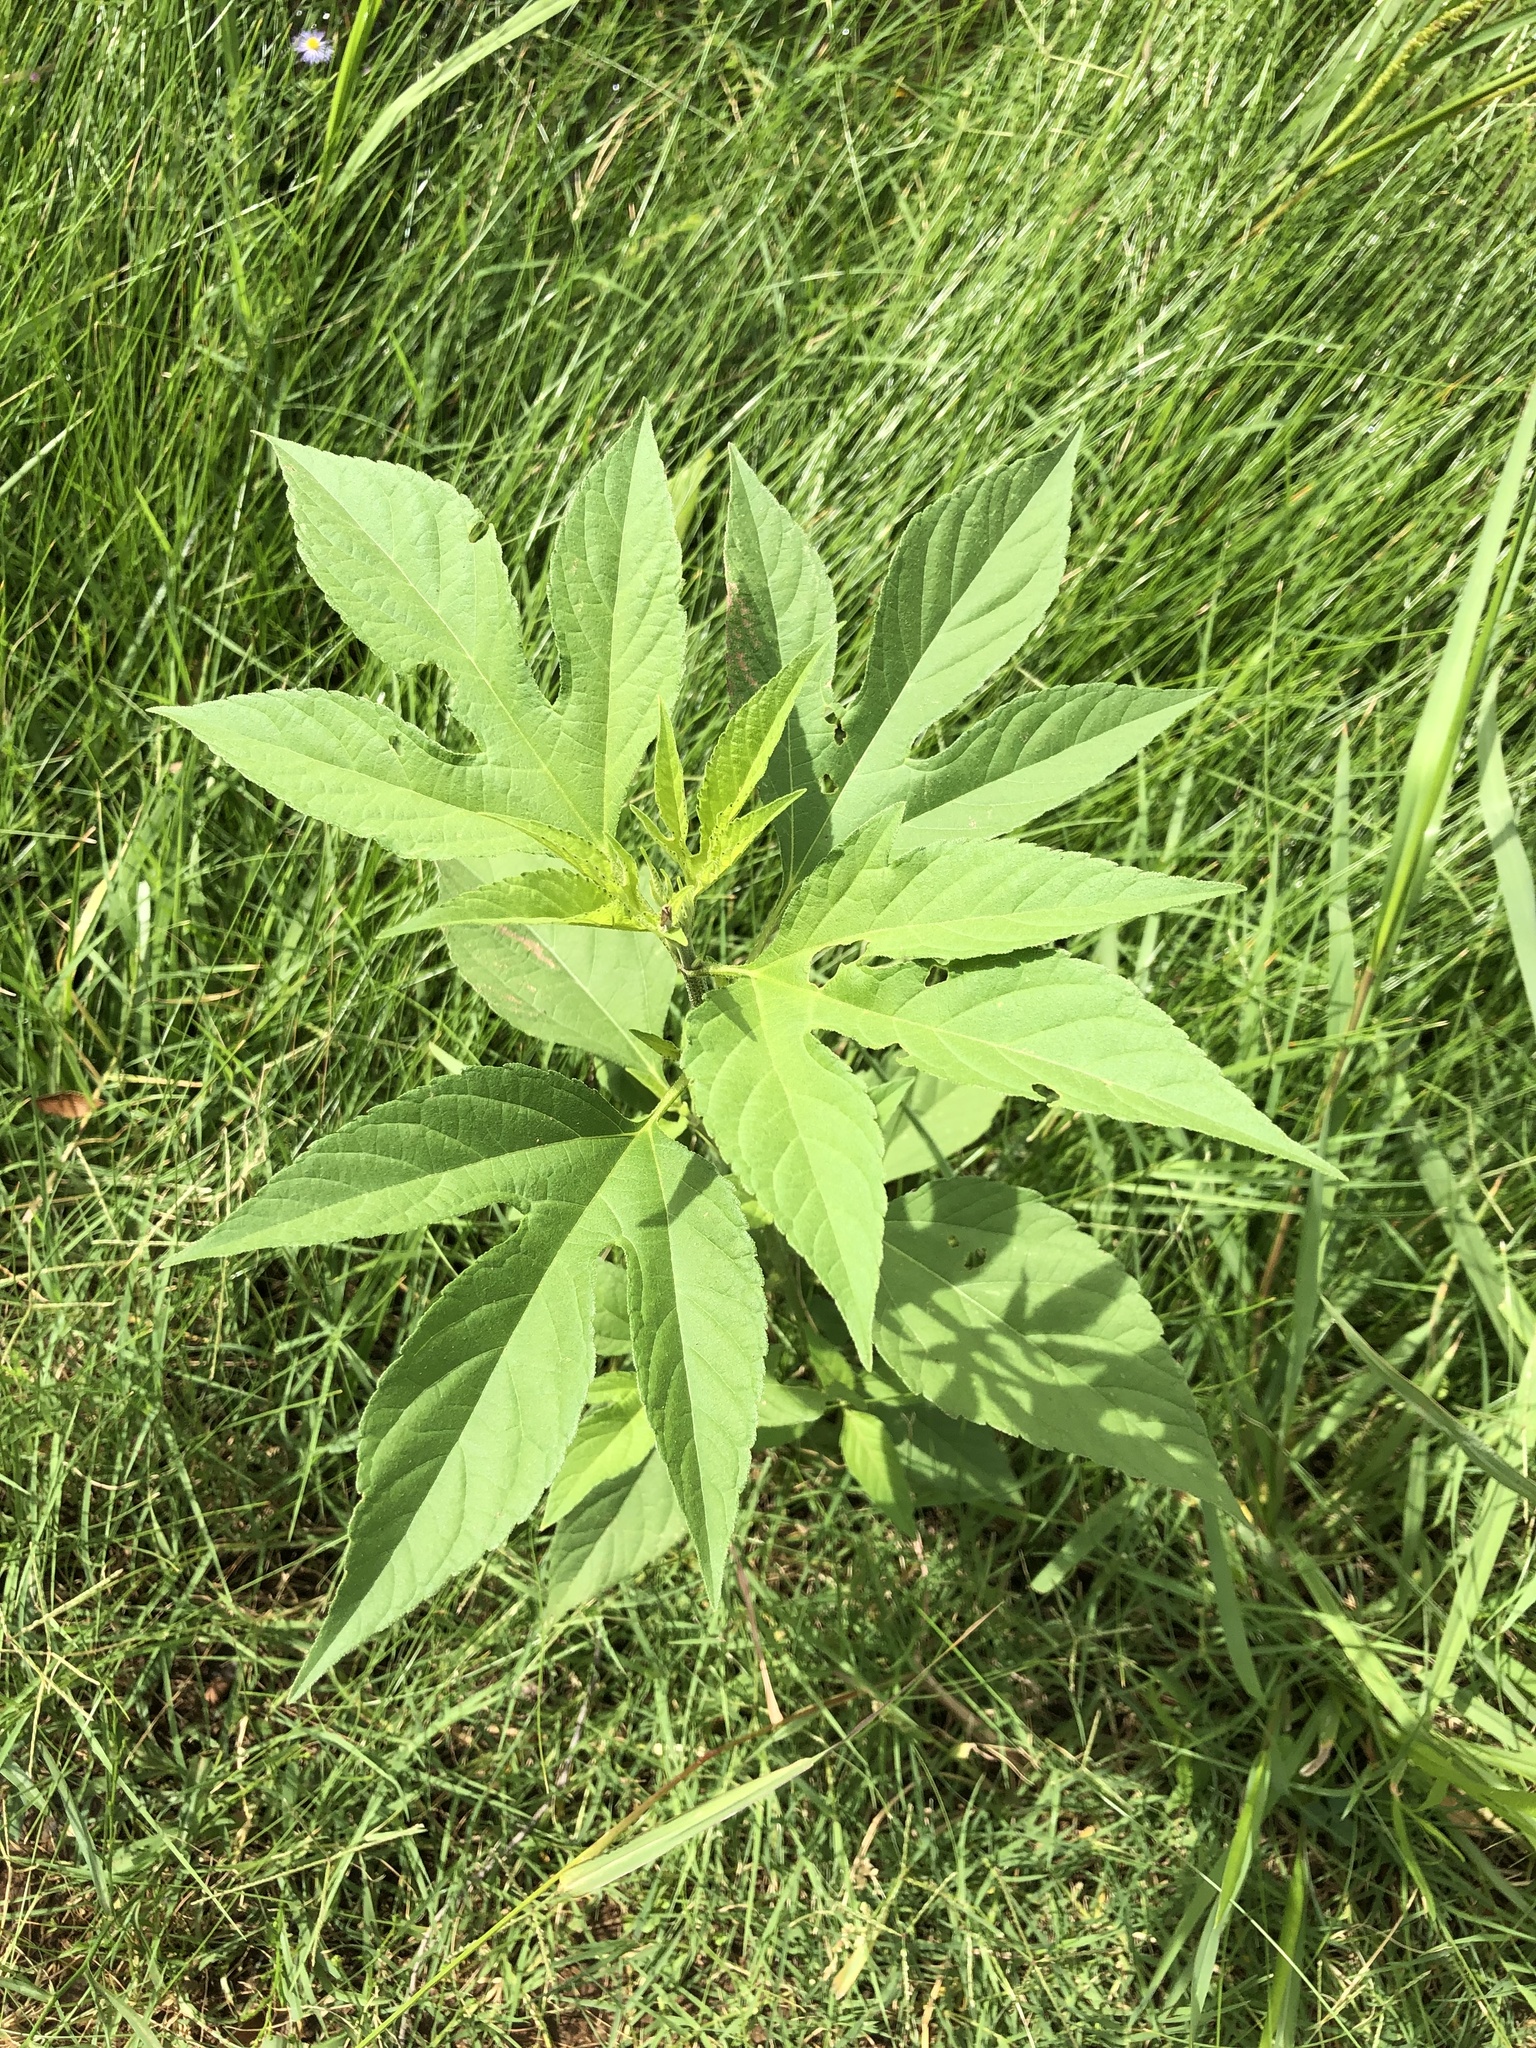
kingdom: Plantae
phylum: Tracheophyta
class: Magnoliopsida
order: Asterales
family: Asteraceae
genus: Ambrosia
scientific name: Ambrosia trifida
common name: Giant ragweed
